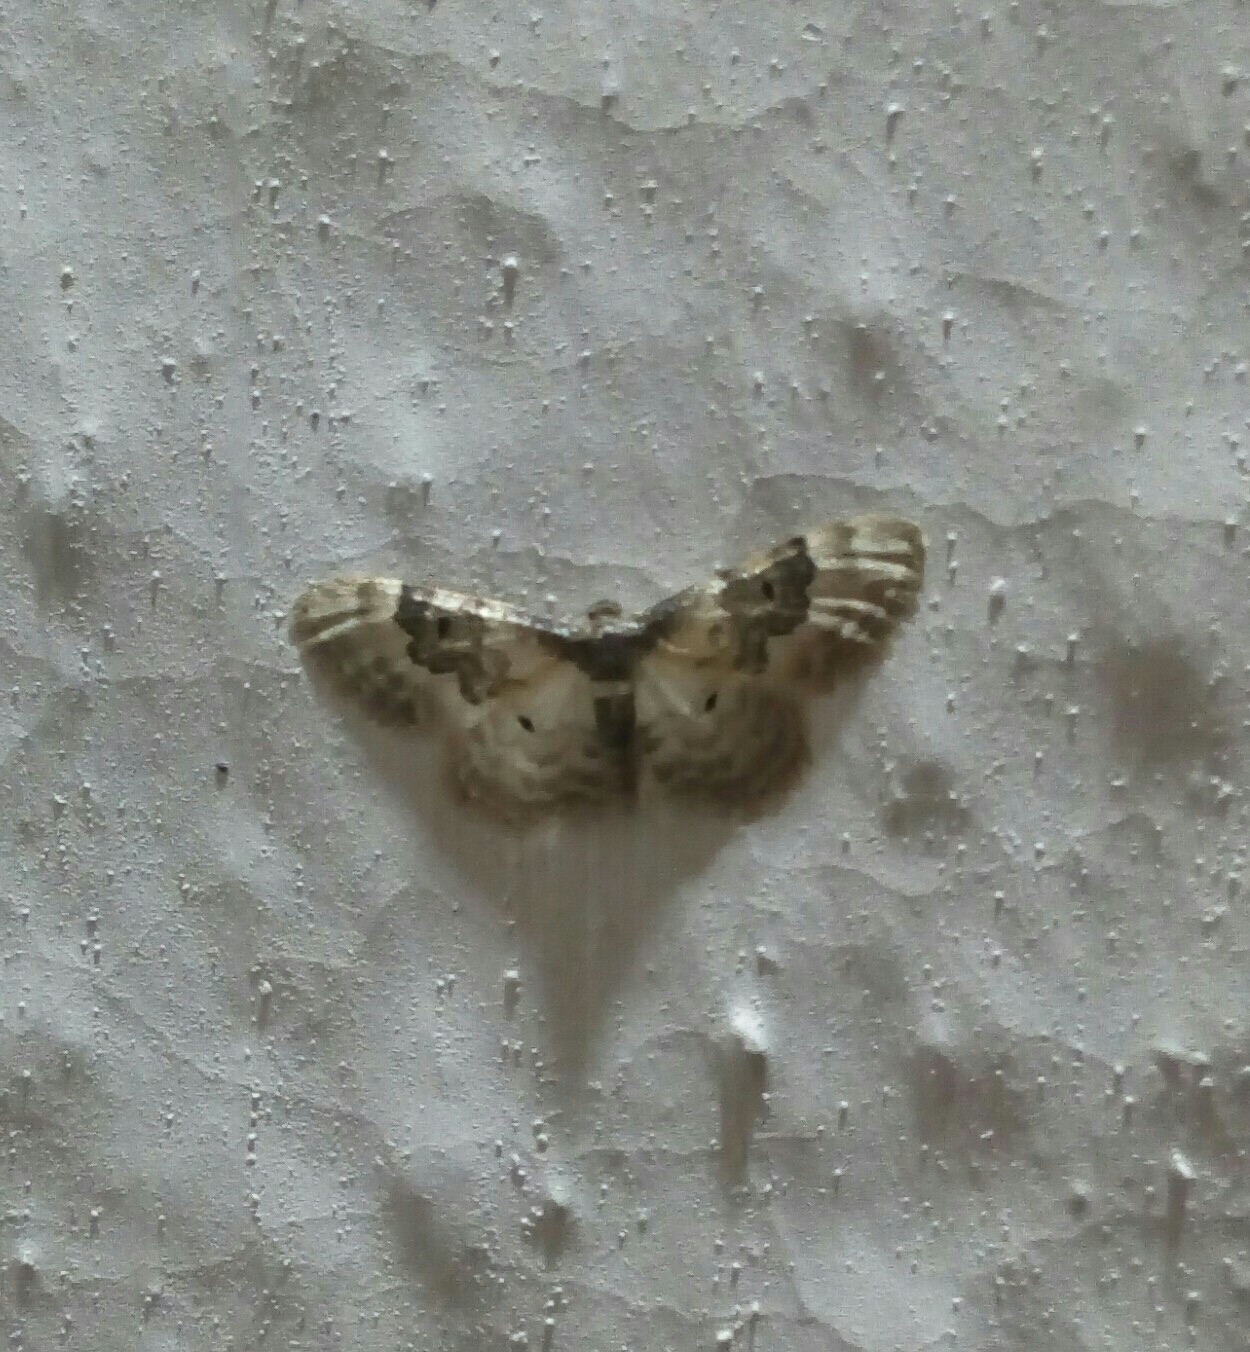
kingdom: Animalia
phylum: Arthropoda
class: Insecta
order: Lepidoptera
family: Geometridae
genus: Idaea
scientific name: Idaea rusticata
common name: Least carpet
